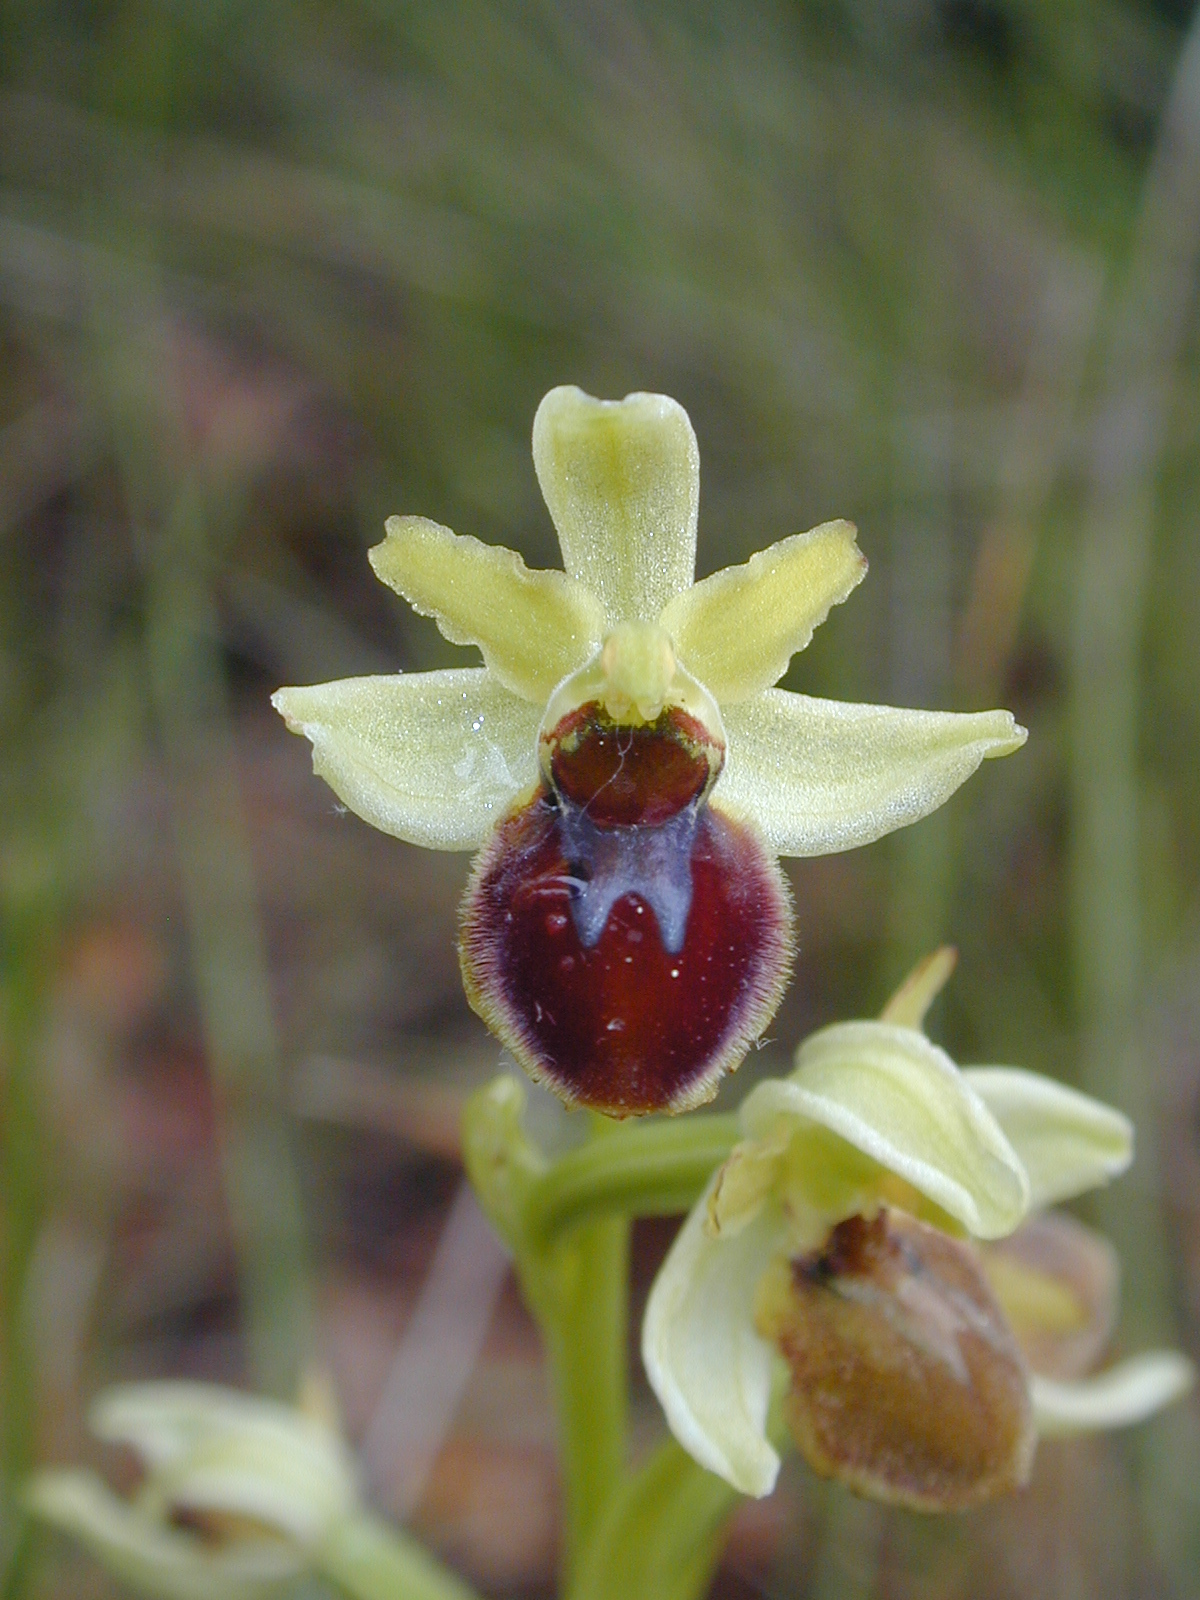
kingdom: Plantae
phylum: Tracheophyta
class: Liliopsida
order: Asparagales
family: Orchidaceae
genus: Ophrys
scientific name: Ophrys sphegodes
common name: Early spider-orchid
